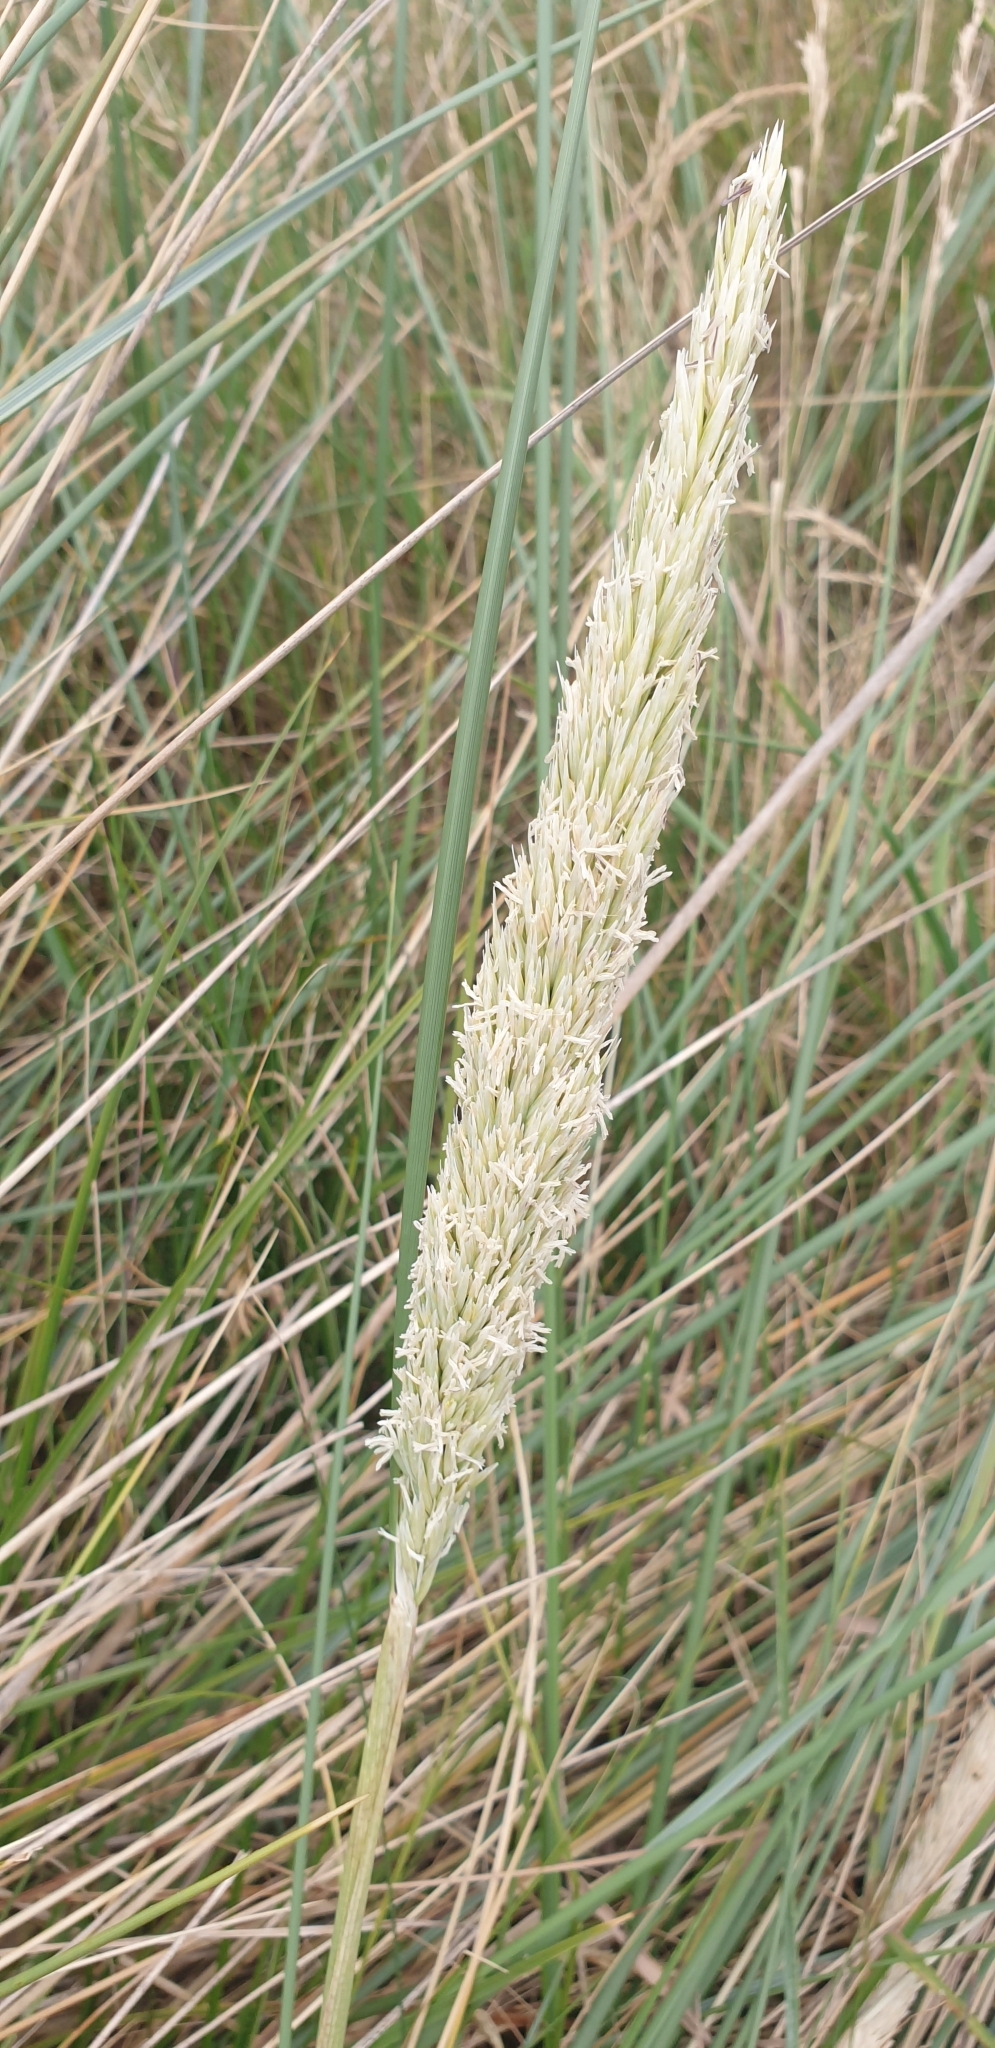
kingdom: Plantae
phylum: Tracheophyta
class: Liliopsida
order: Poales
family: Poaceae
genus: Calamagrostis
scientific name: Calamagrostis arenaria
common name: European beachgrass
